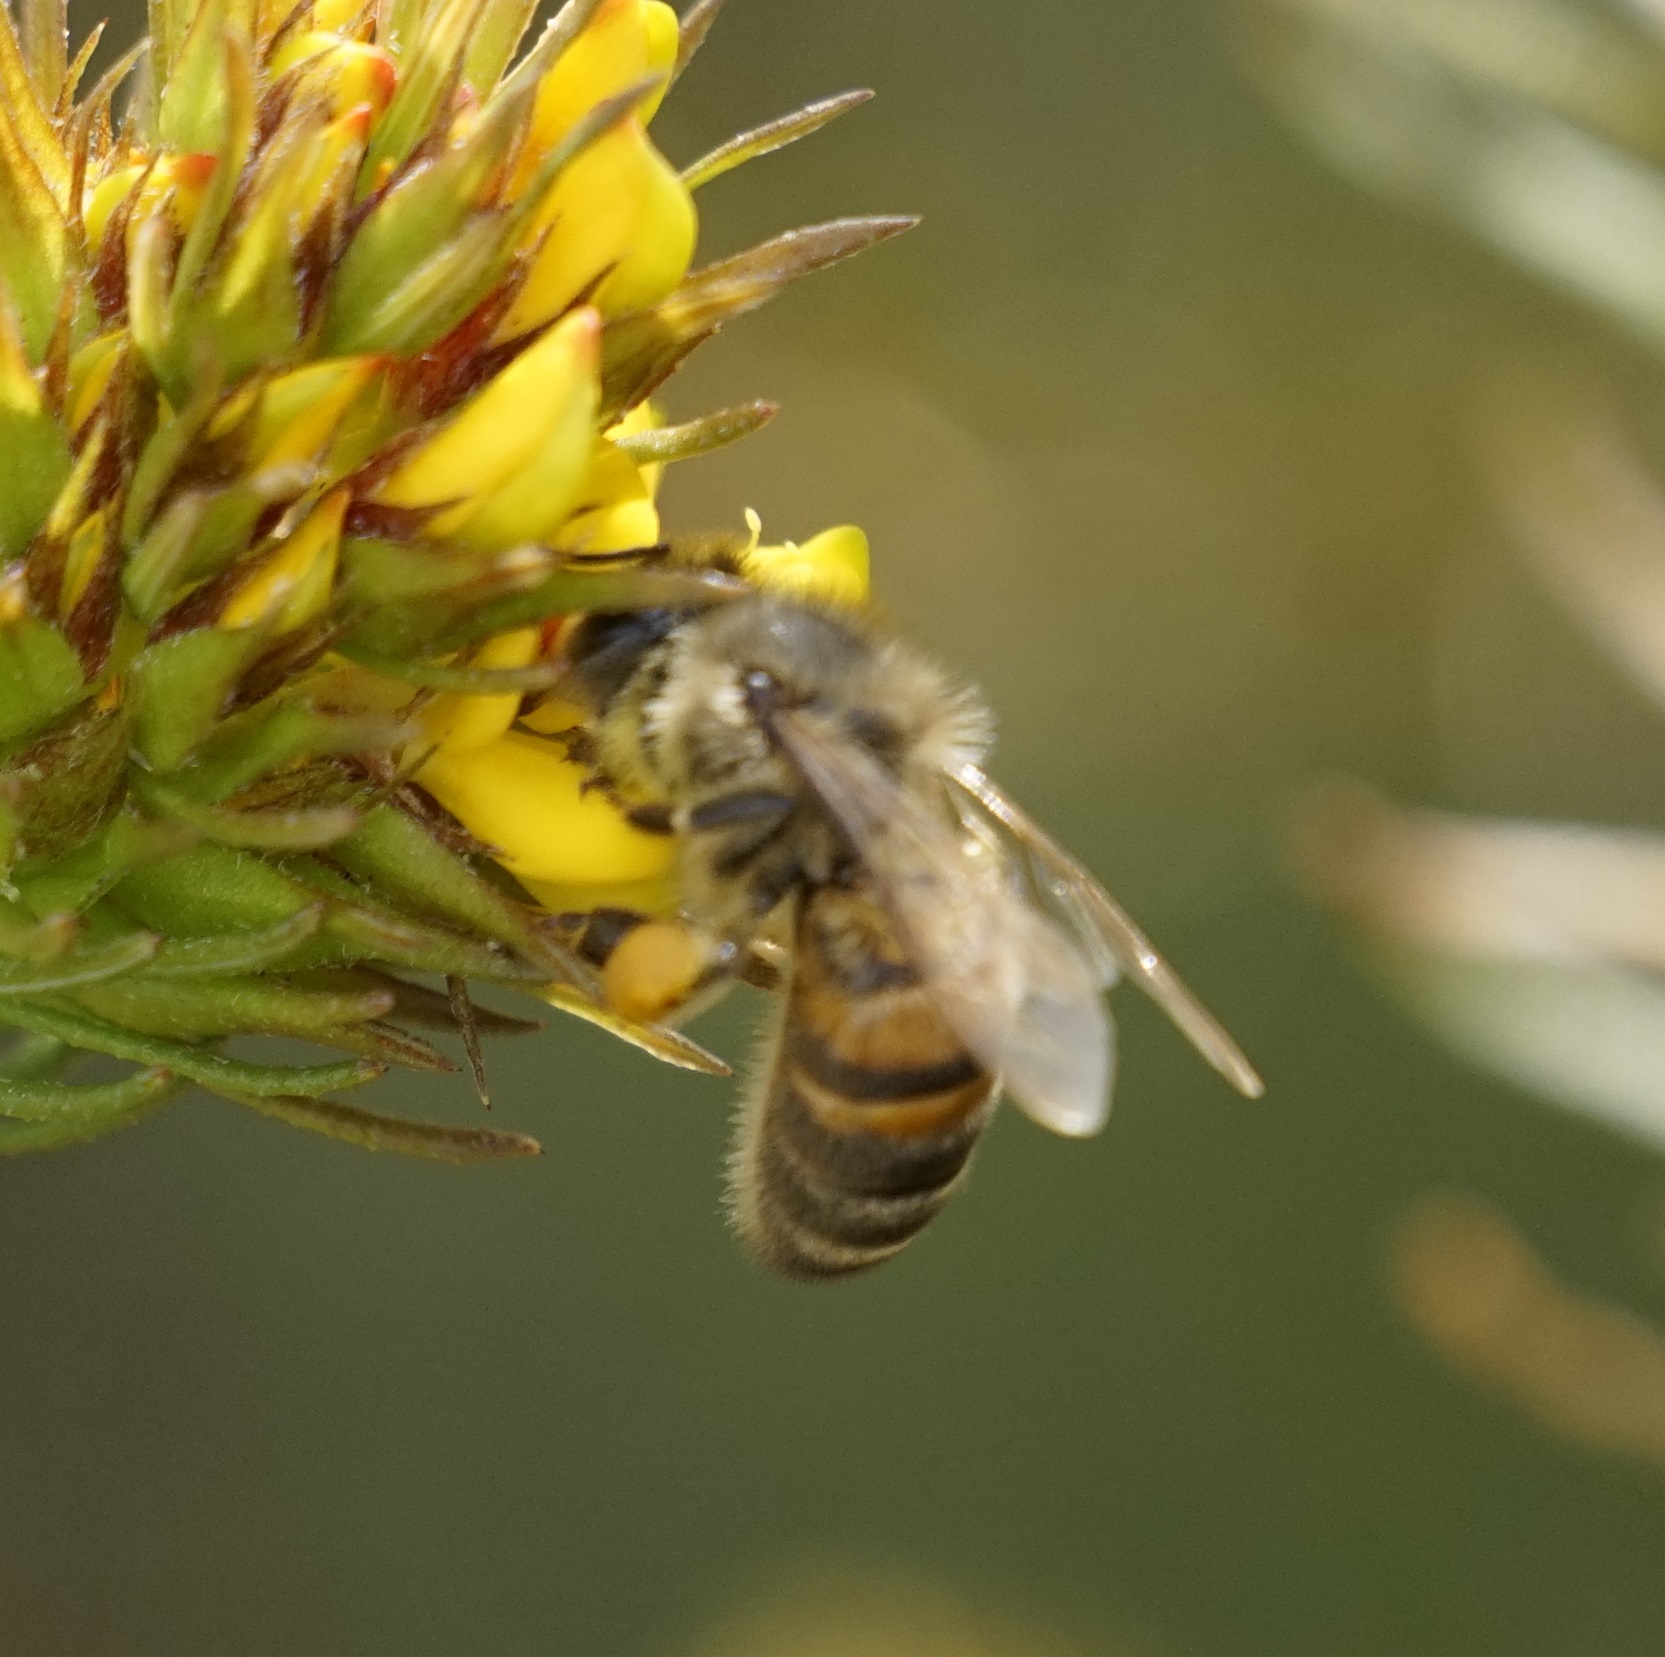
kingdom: Animalia
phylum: Arthropoda
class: Insecta
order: Hymenoptera
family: Apidae
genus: Apis
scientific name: Apis mellifera
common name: Honey bee
